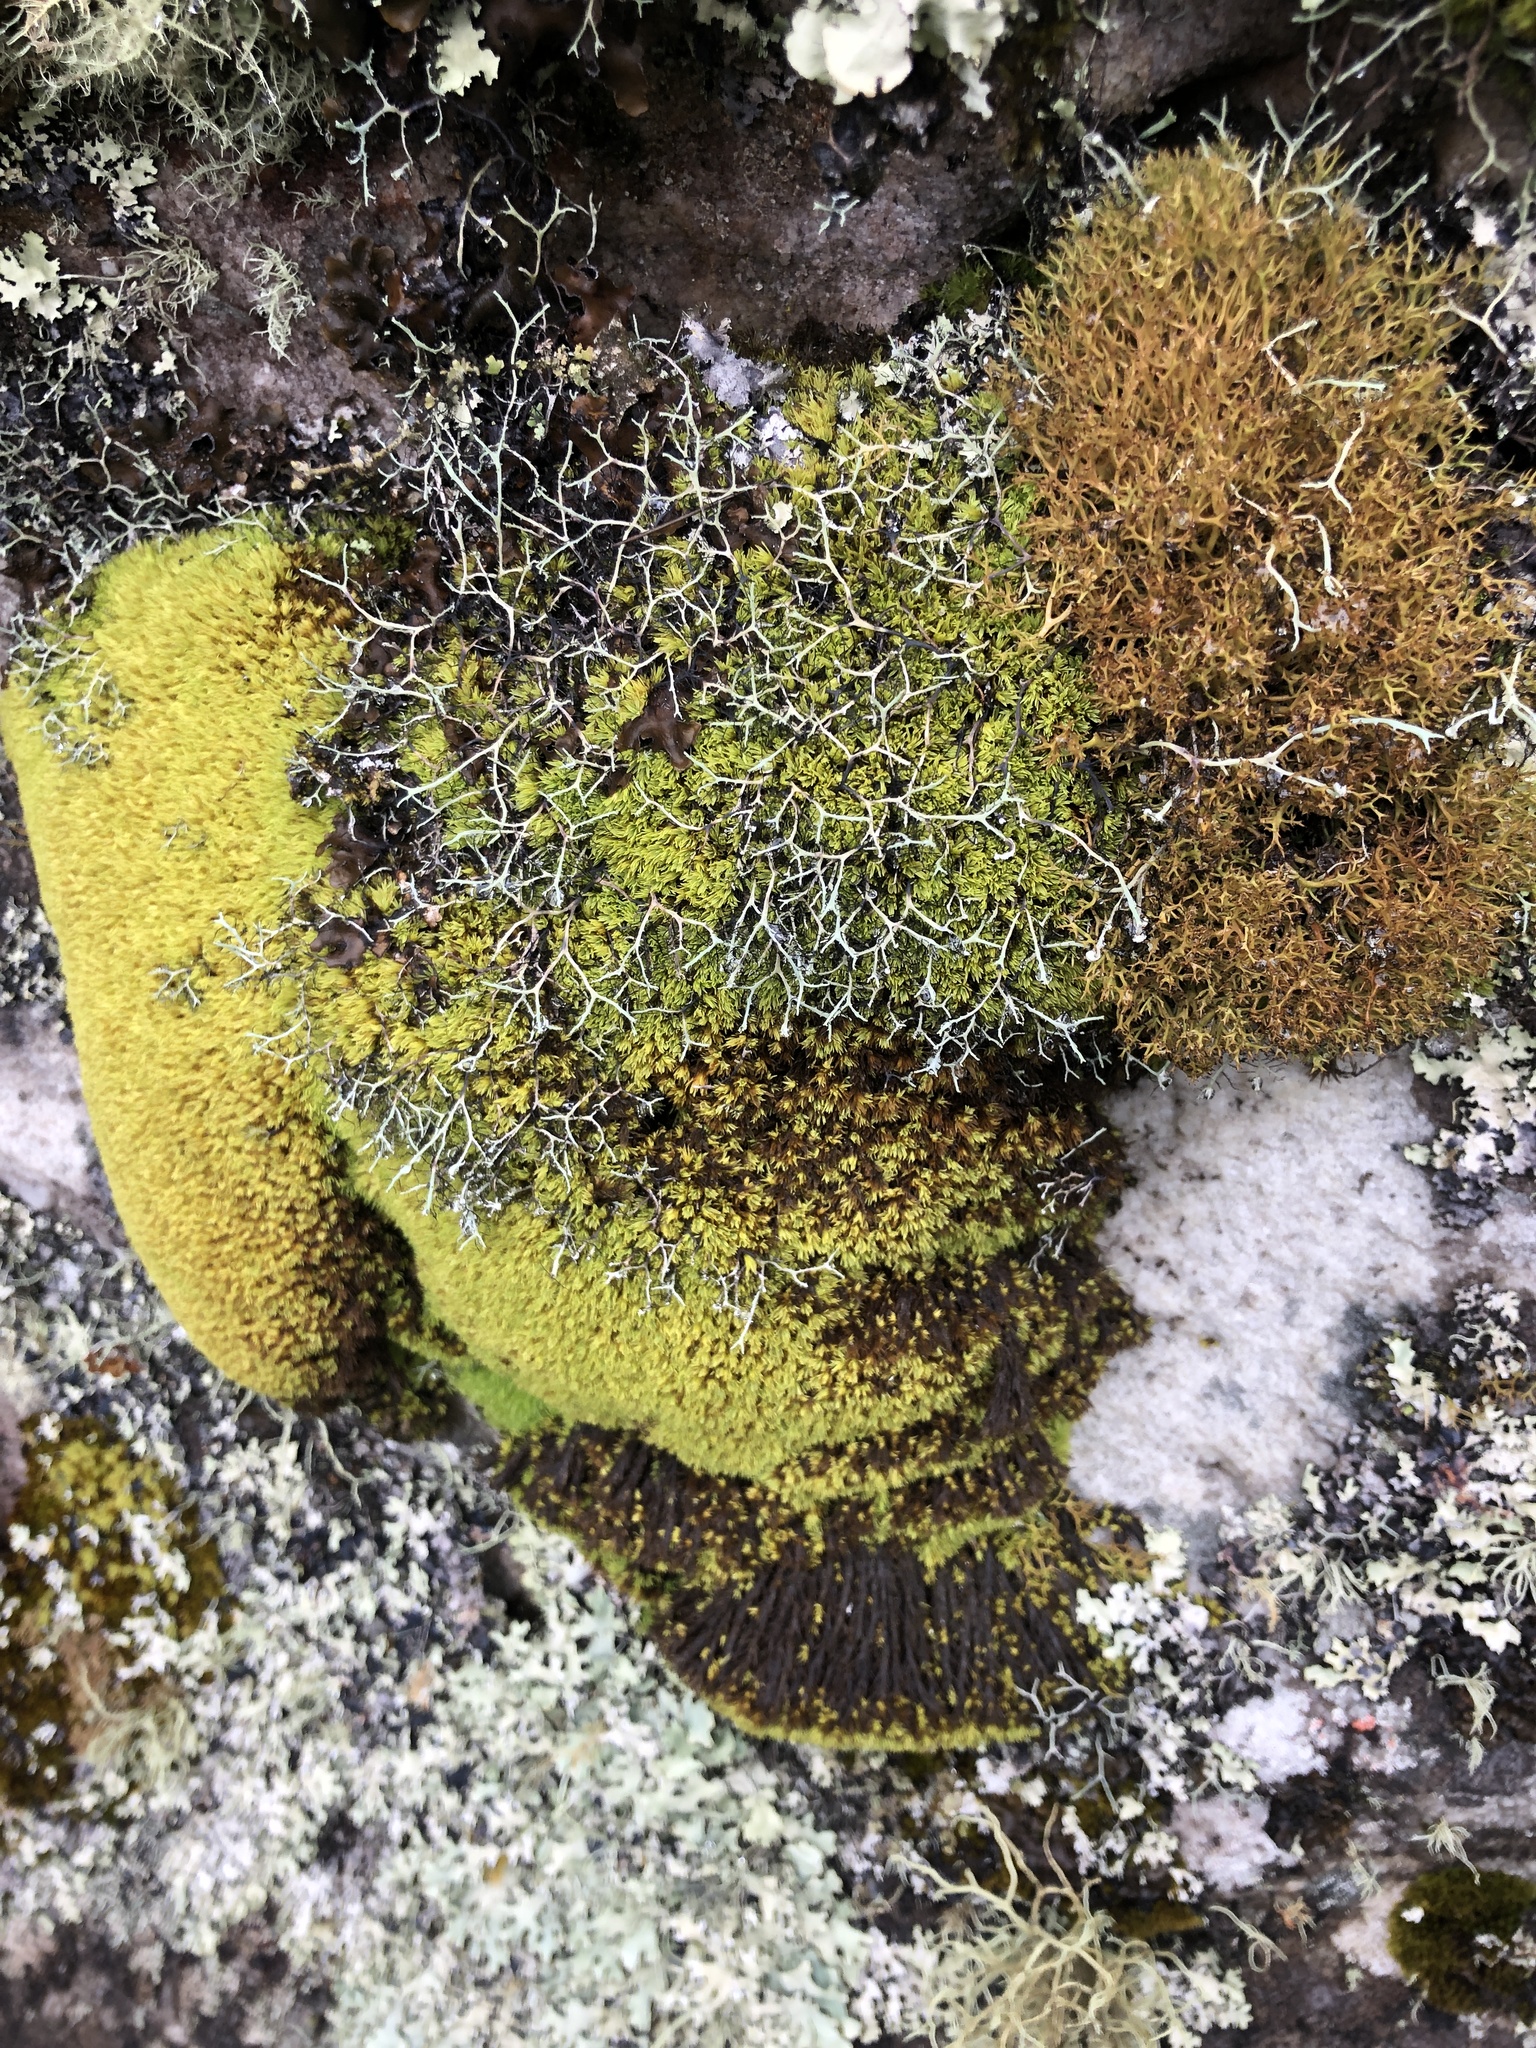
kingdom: Plantae
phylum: Bryophyta
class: Bryopsida
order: Dicranales
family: Hypodontiaceae
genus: Hypodontium
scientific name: Hypodontium pomiforme
